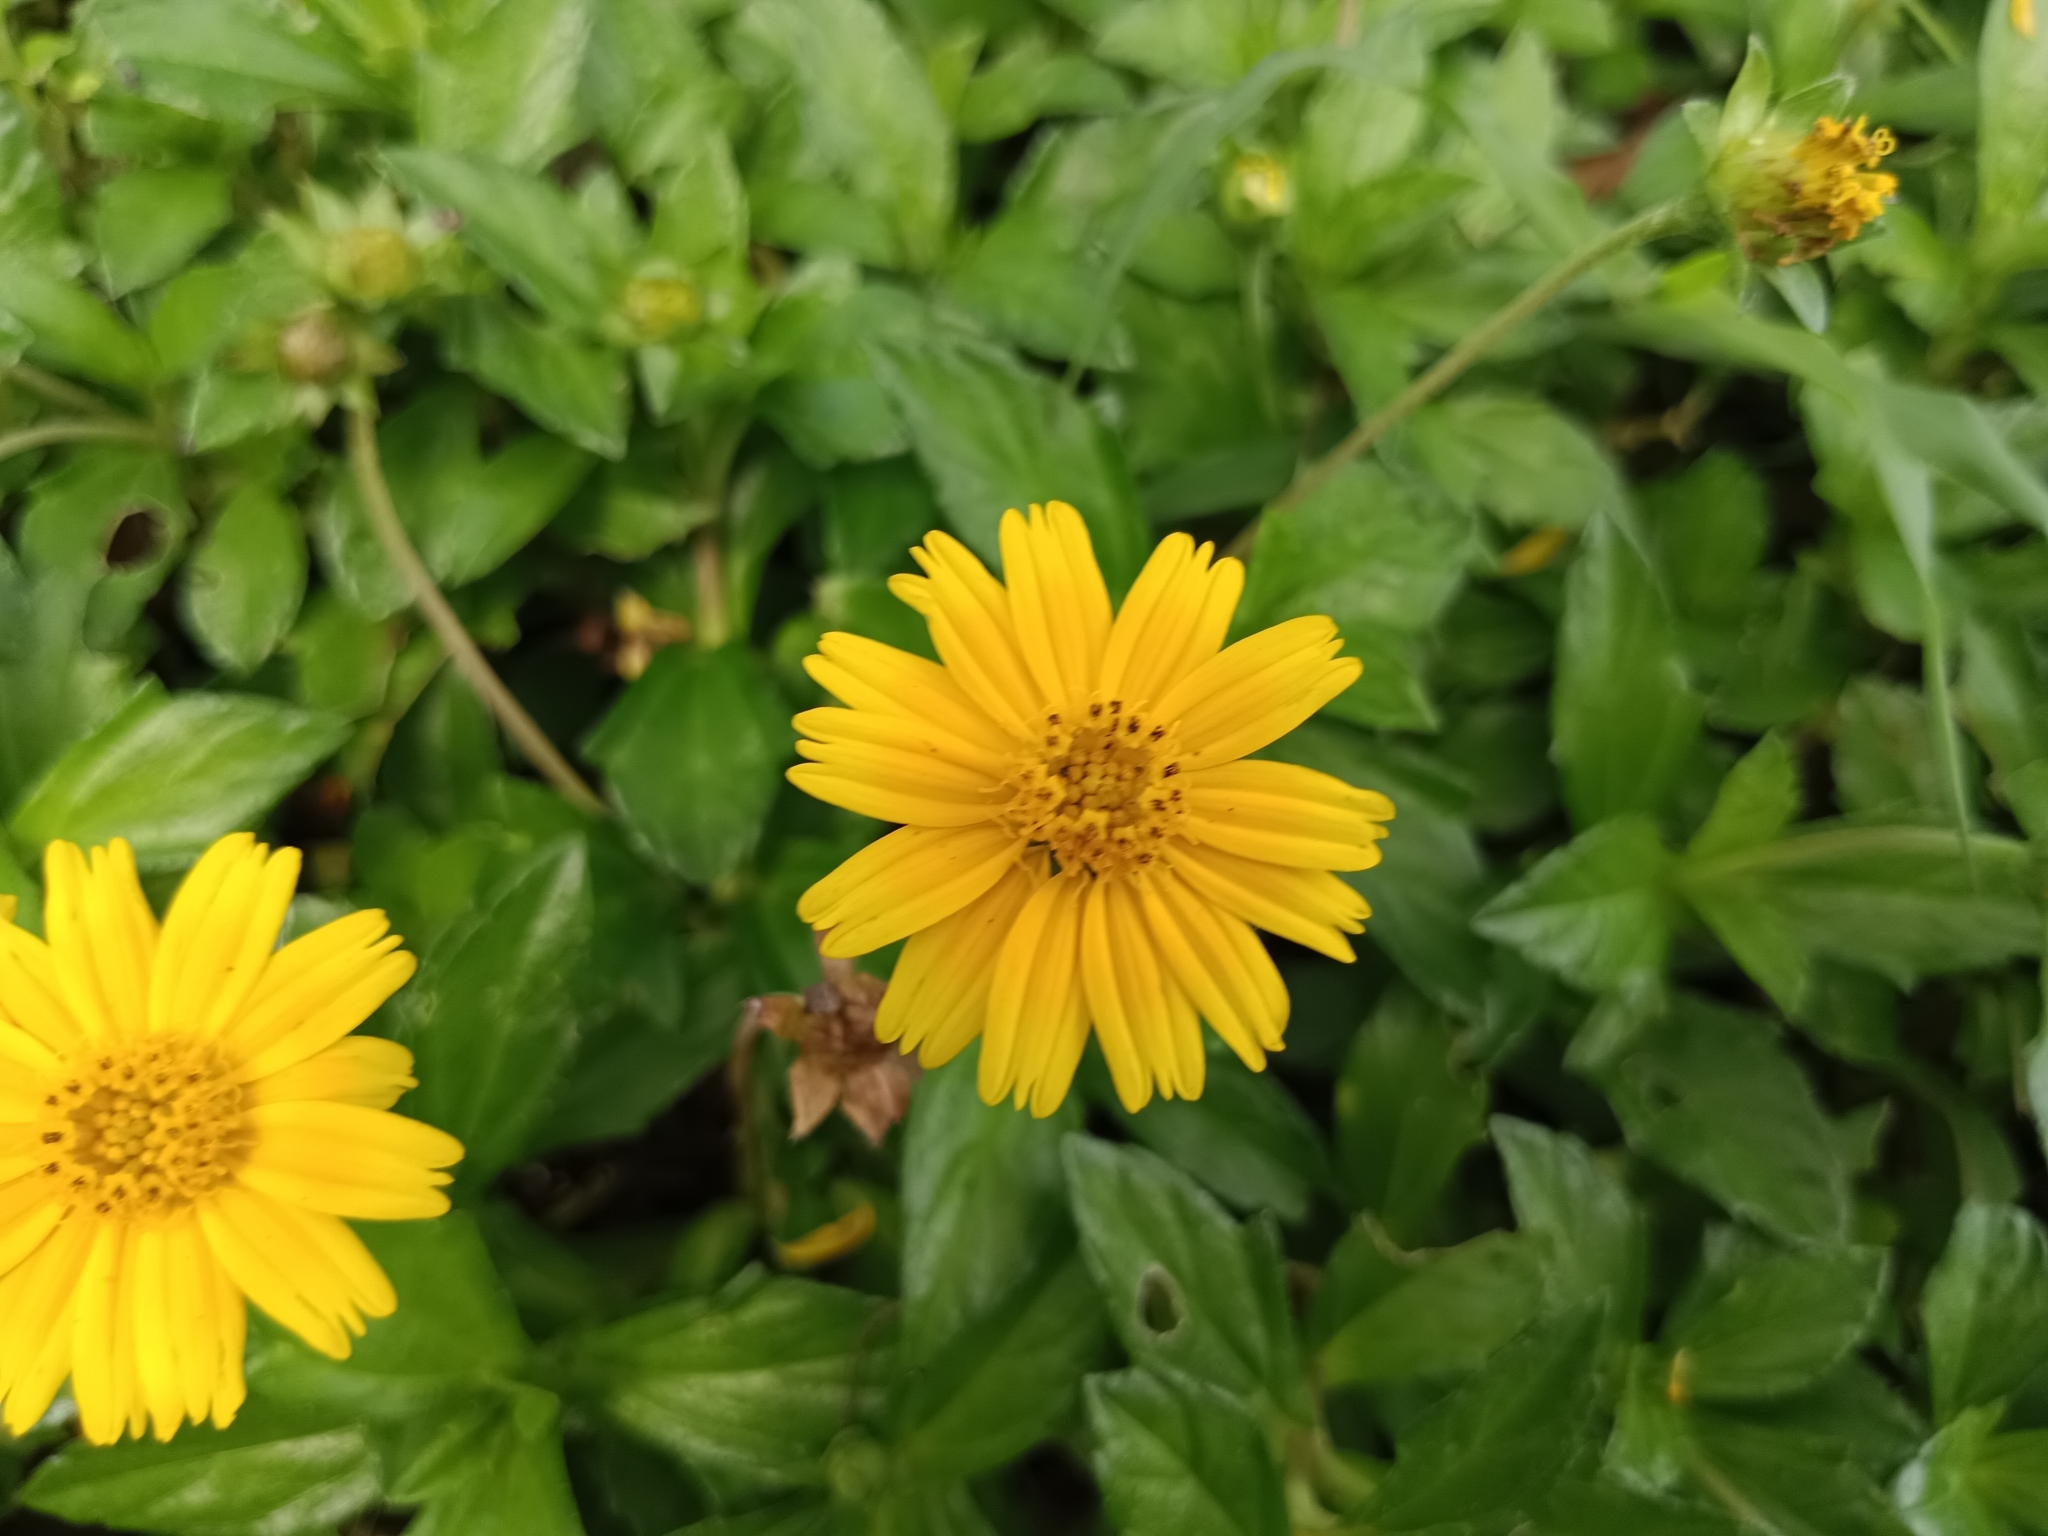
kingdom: Plantae
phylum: Tracheophyta
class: Magnoliopsida
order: Asterales
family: Asteraceae
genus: Sphagneticola
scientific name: Sphagneticola trilobata
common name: Bay biscayne creeping-oxeye
